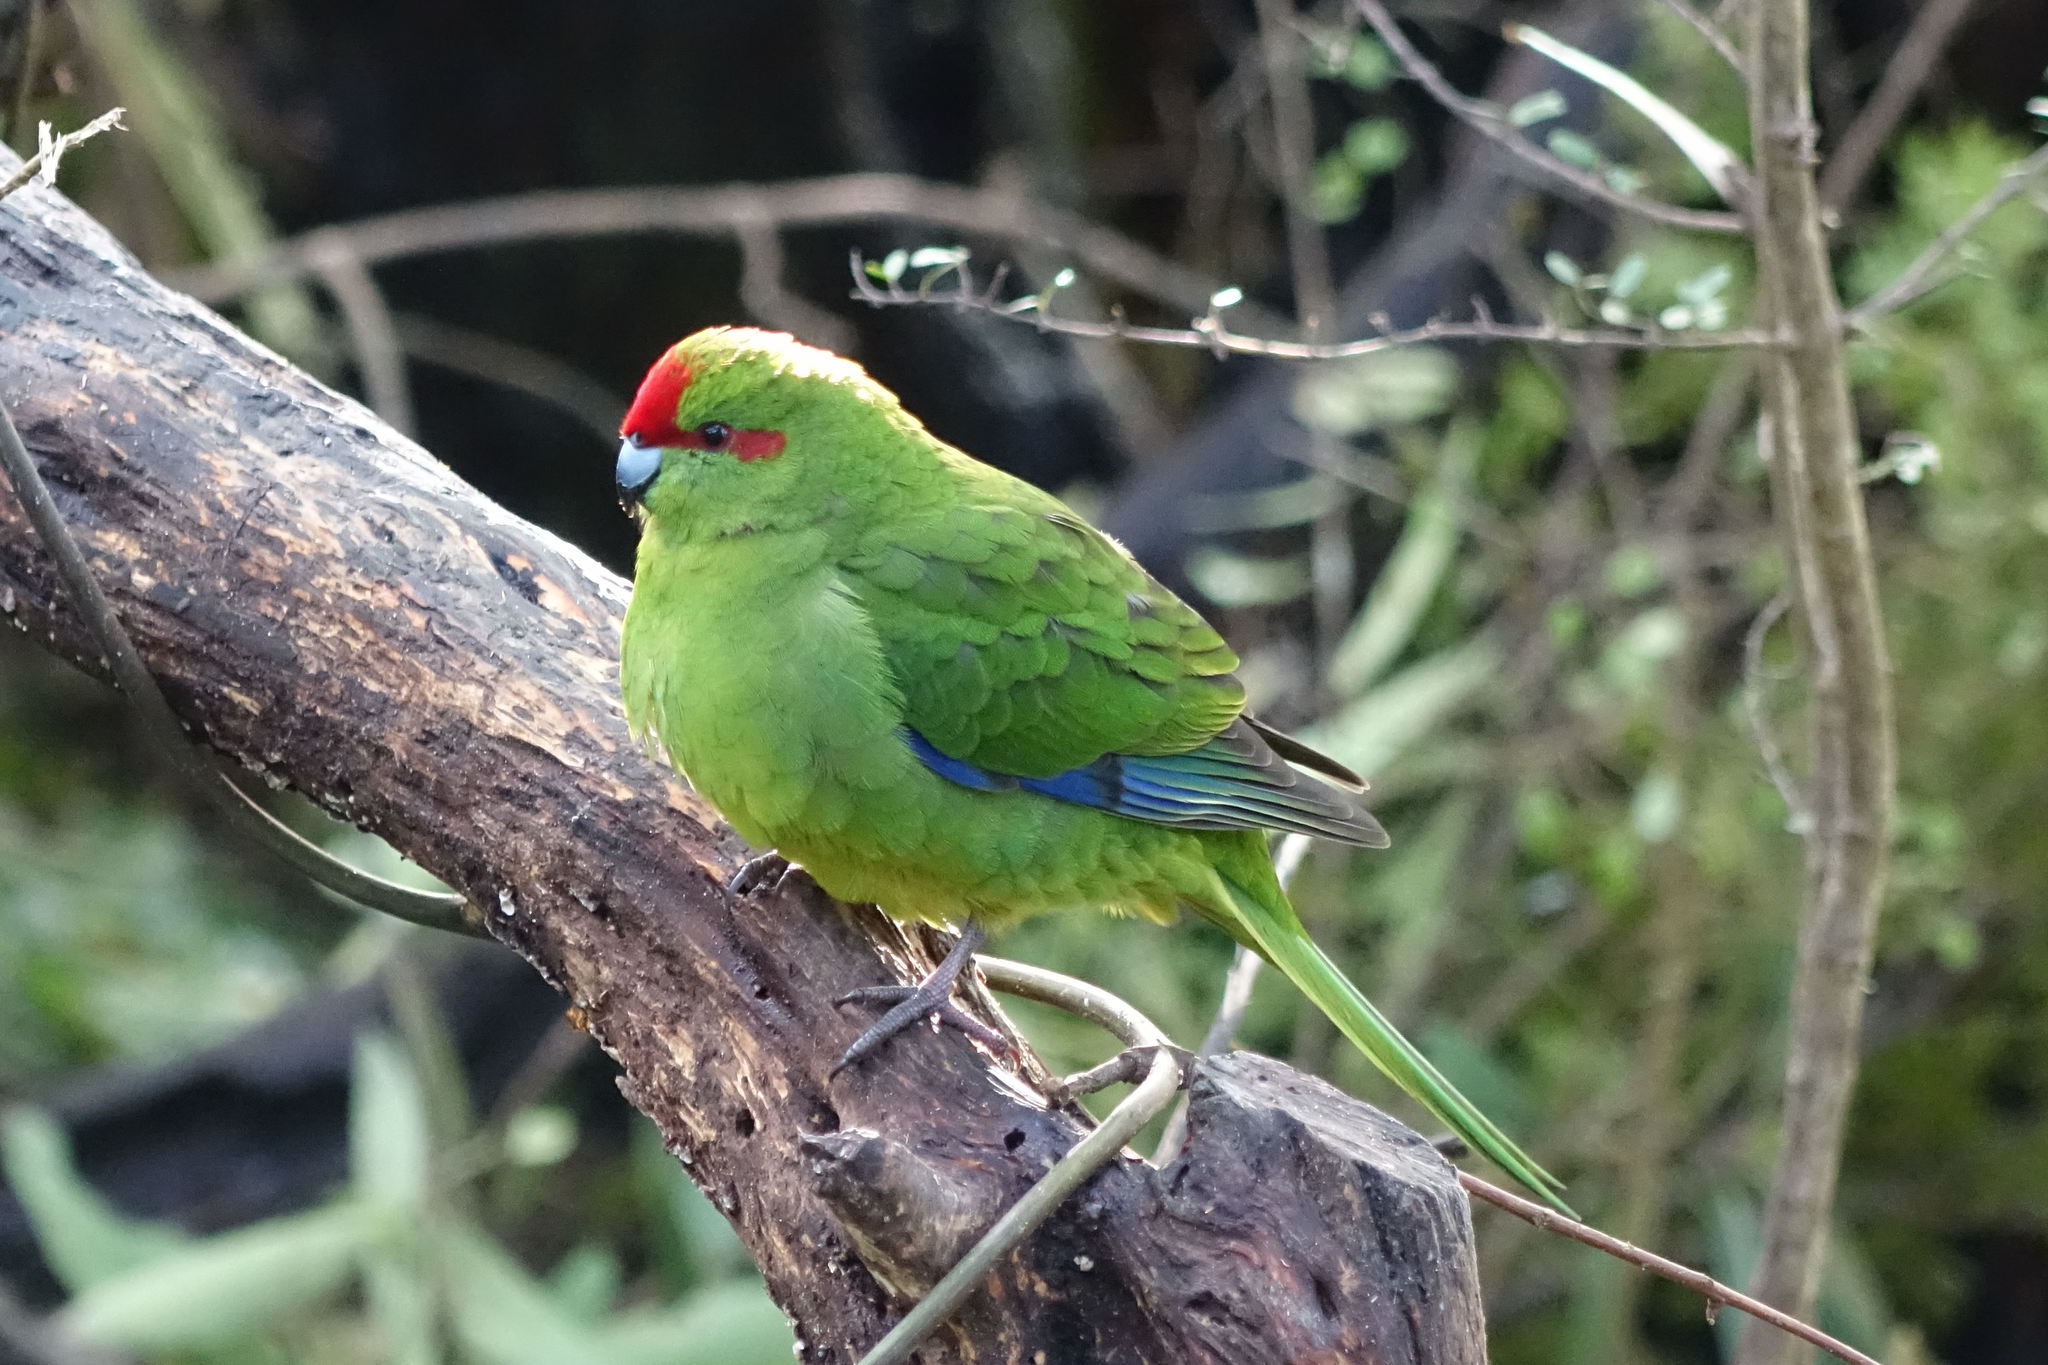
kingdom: Animalia
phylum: Chordata
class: Aves
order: Psittaciformes
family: Psittacidae
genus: Cyanoramphus
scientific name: Cyanoramphus novaezelandiae
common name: Red-fronted parakeet
